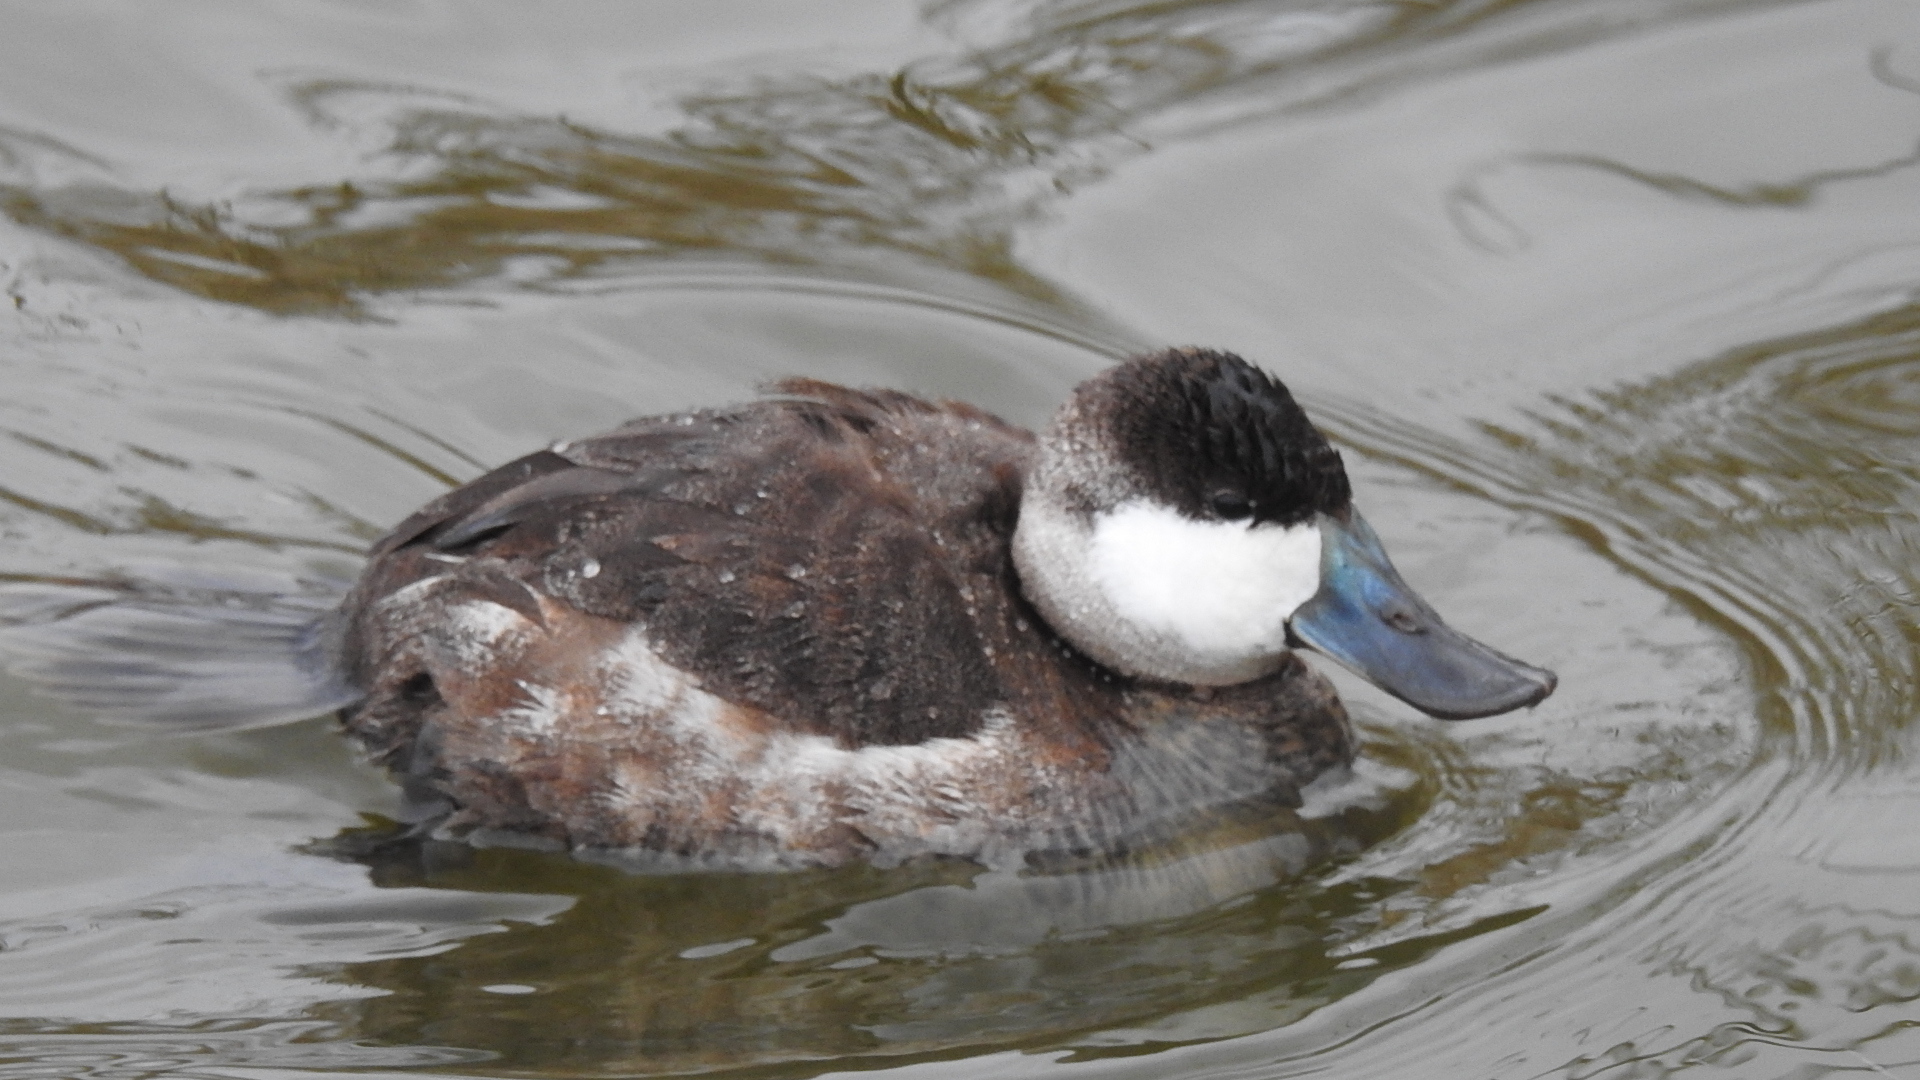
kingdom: Animalia
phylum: Chordata
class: Aves
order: Anseriformes
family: Anatidae
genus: Oxyura
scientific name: Oxyura jamaicensis
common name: Ruddy duck
